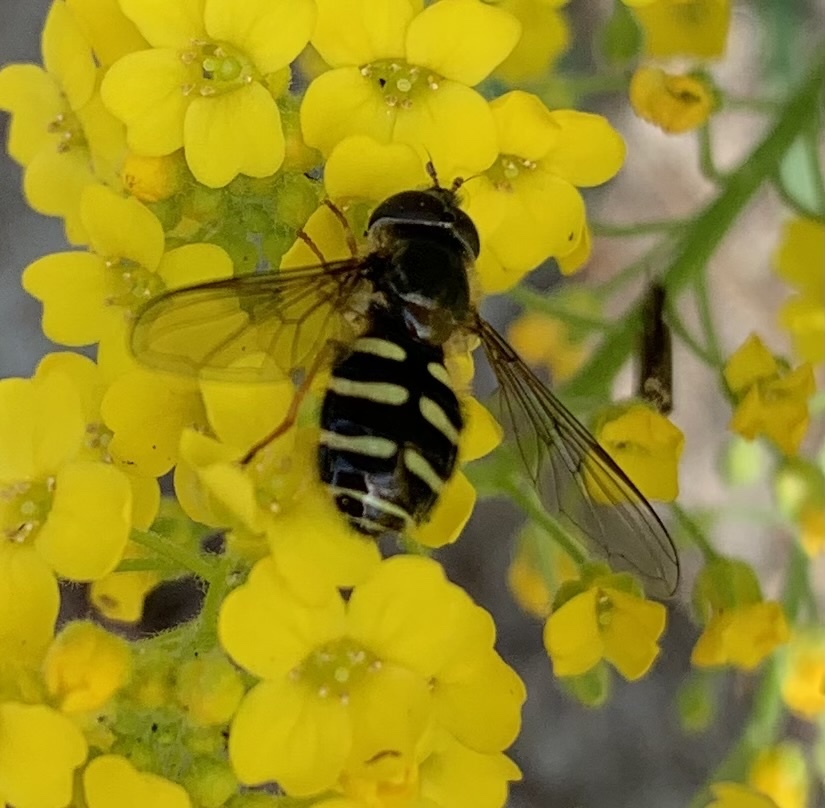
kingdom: Animalia
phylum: Arthropoda
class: Insecta
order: Diptera
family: Syrphidae
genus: Lapposyrphus
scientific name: Lapposyrphus lapponicus
